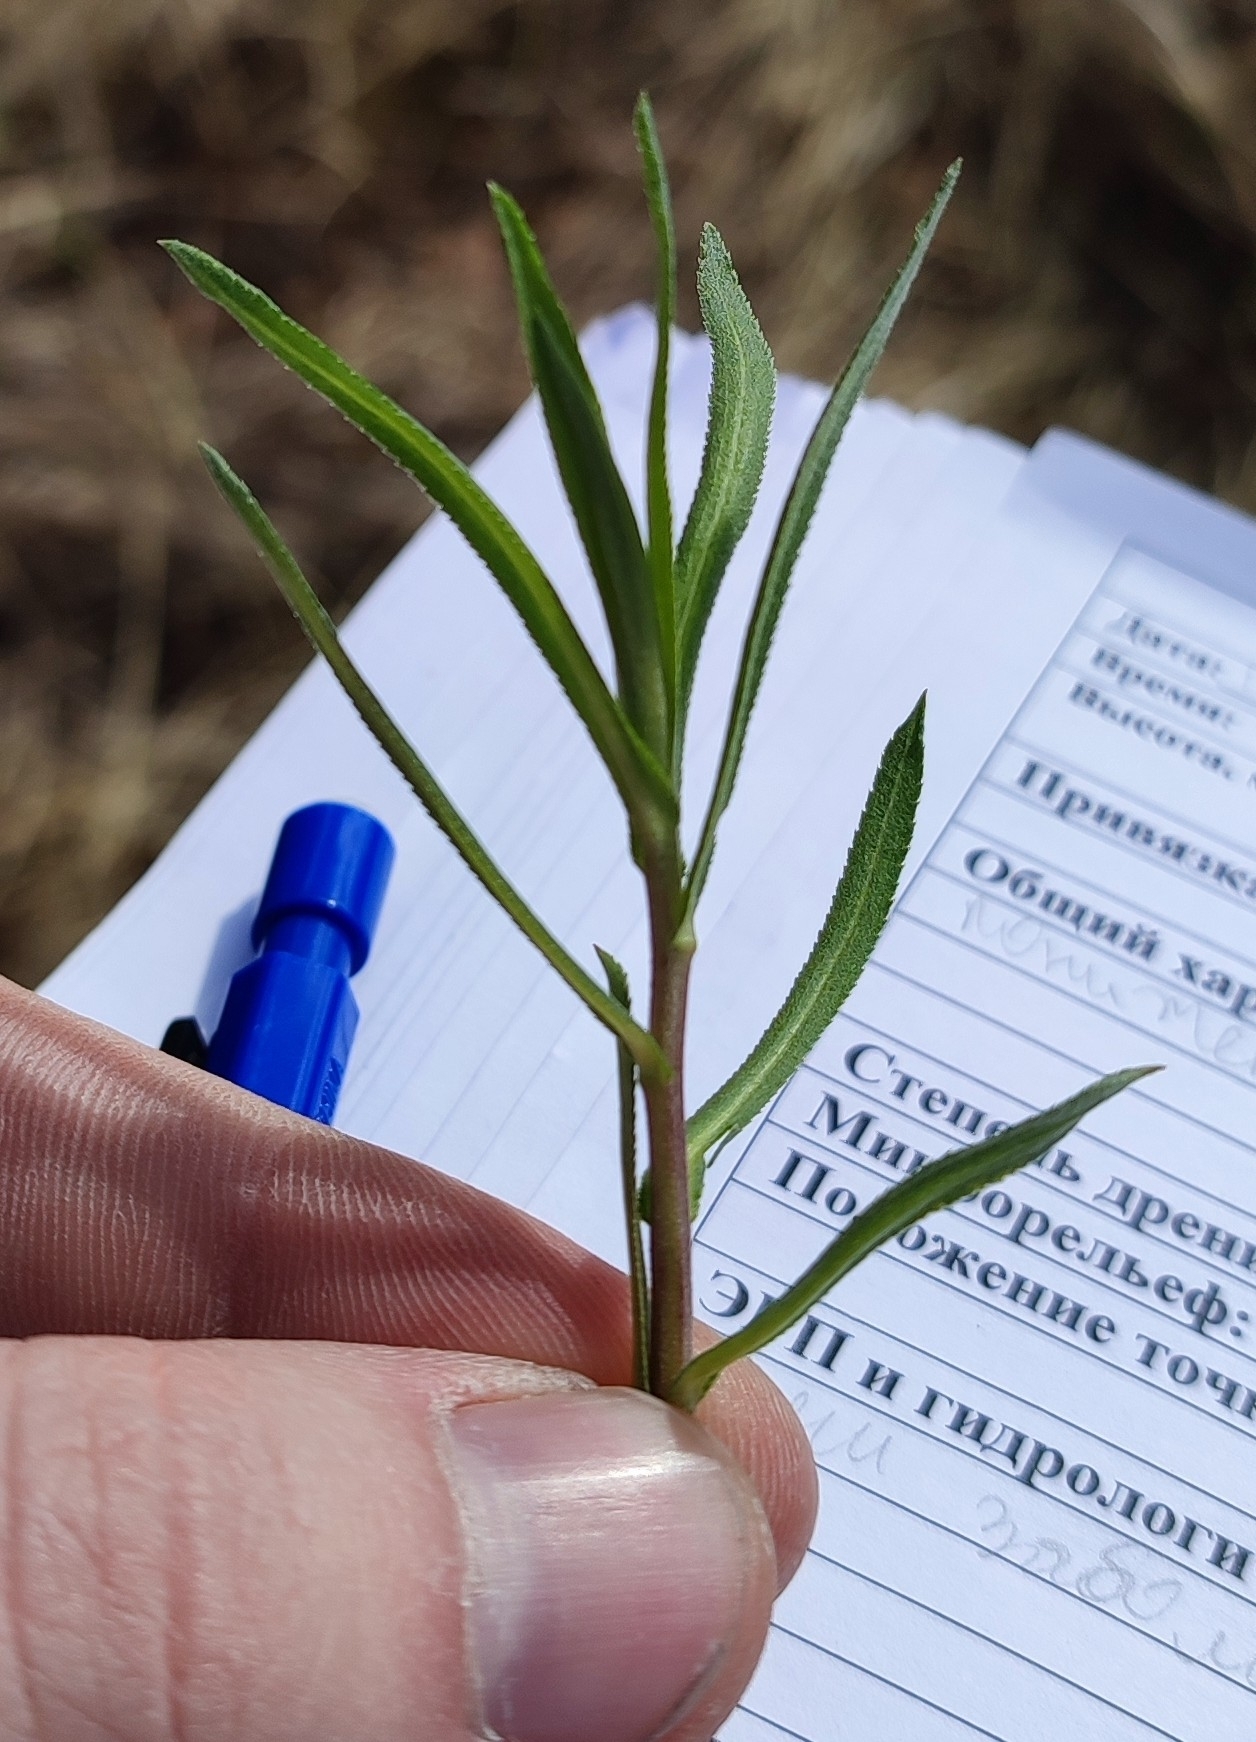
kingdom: Plantae
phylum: Tracheophyta
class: Magnoliopsida
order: Asterales
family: Asteraceae
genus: Achillea
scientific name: Achillea salicifolia
